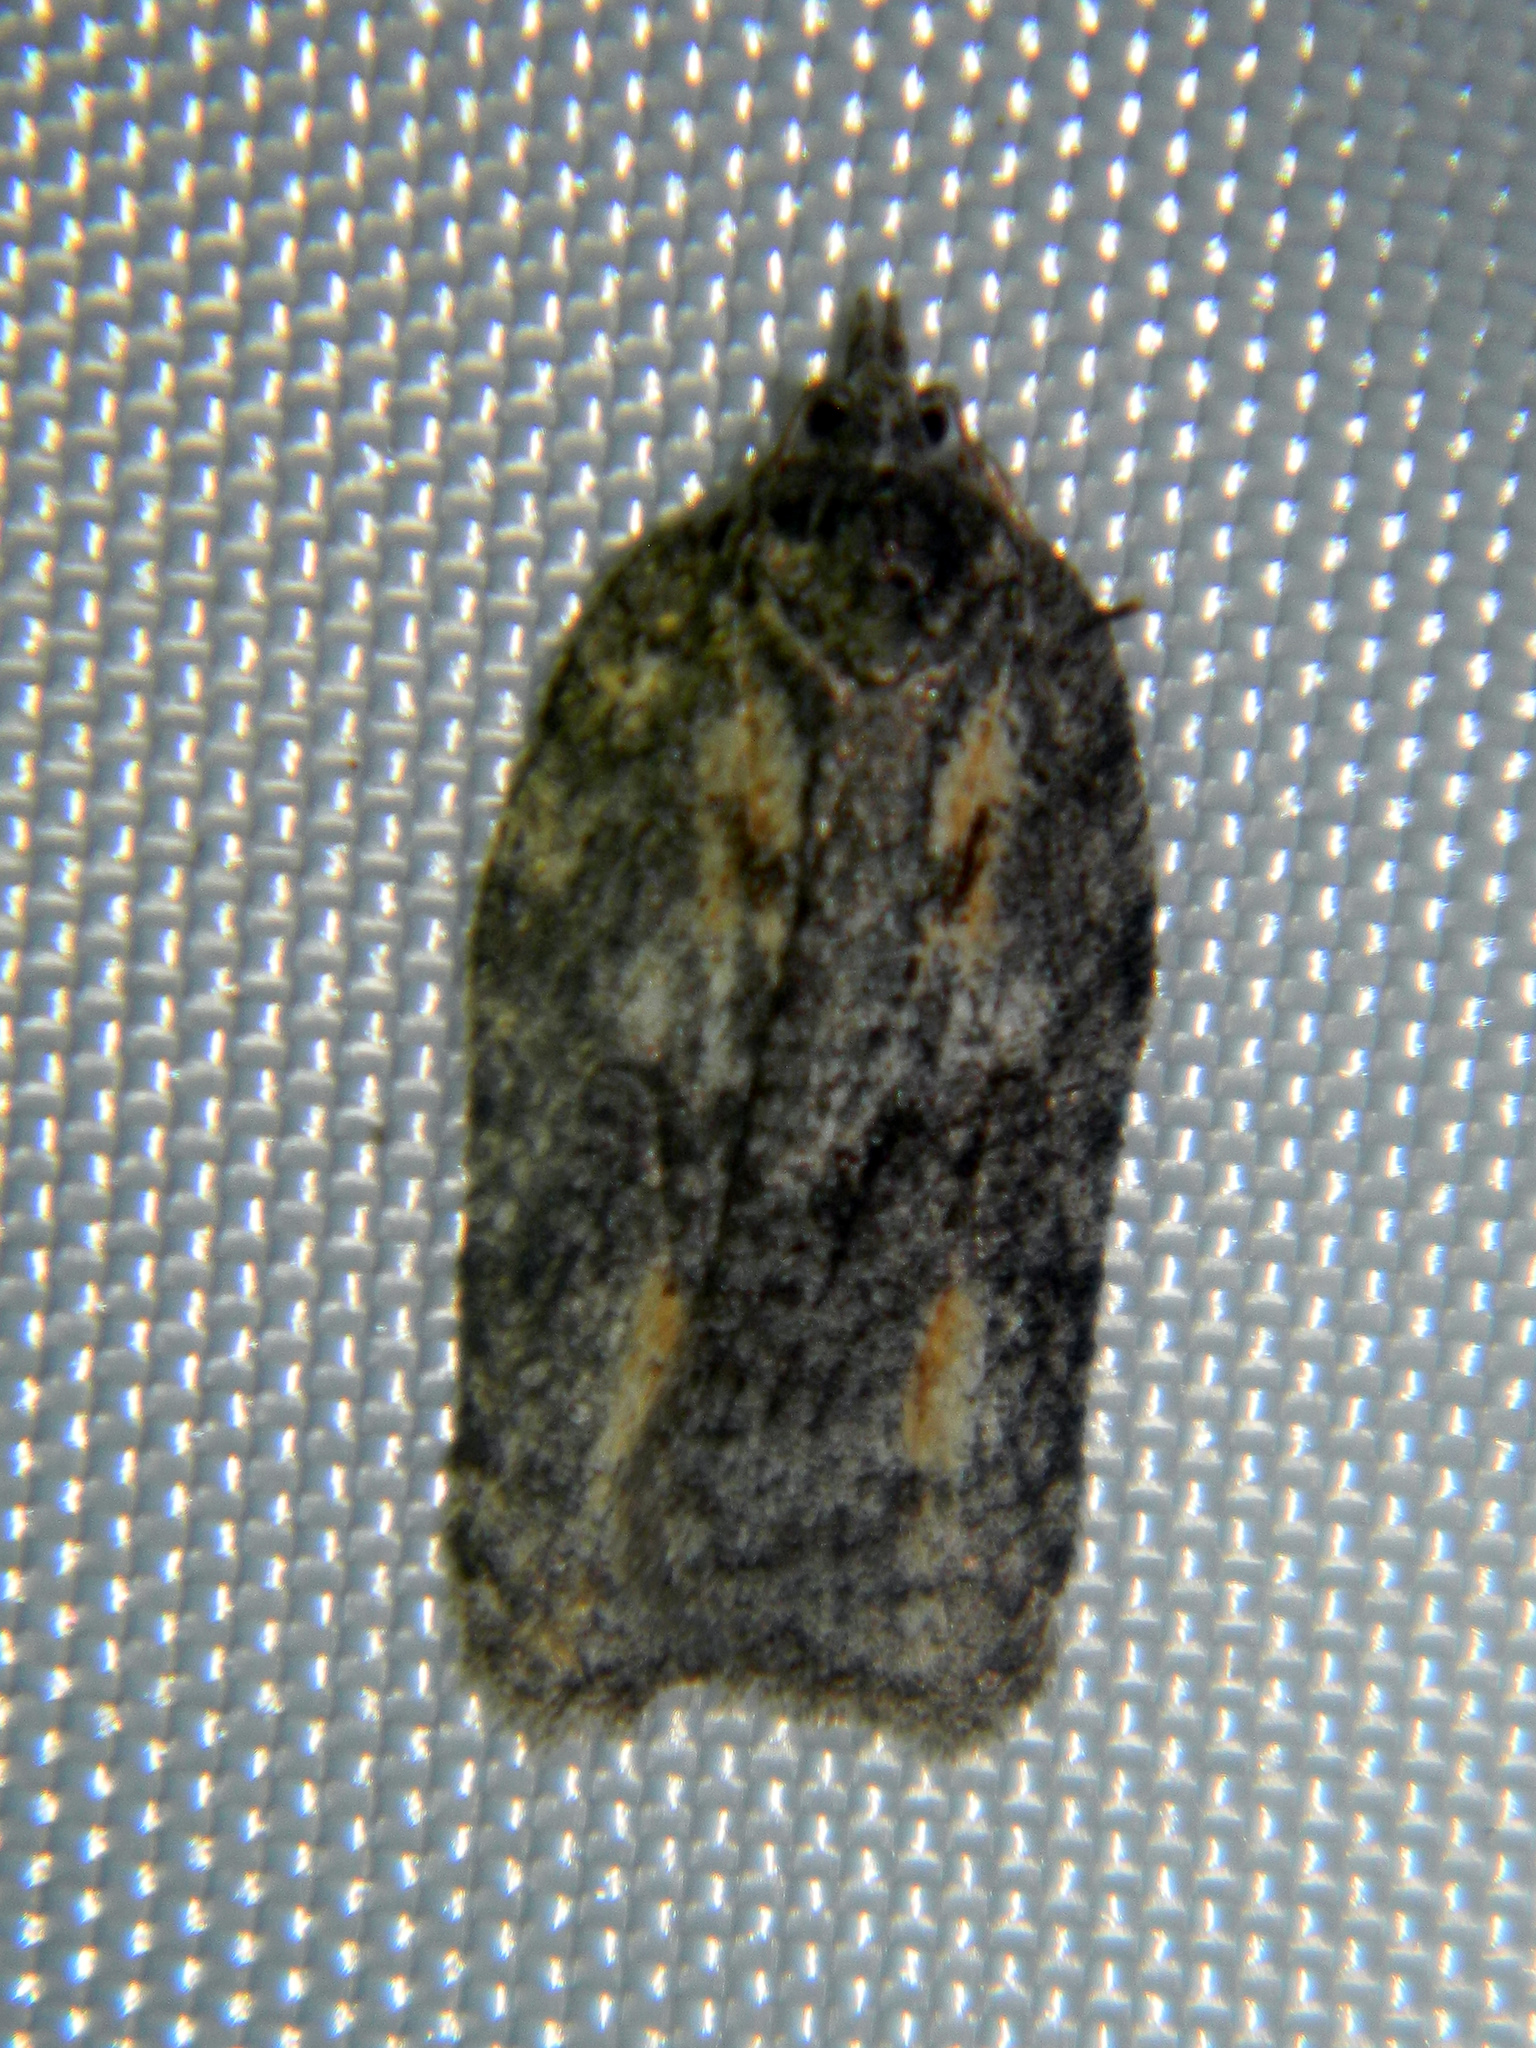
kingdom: Animalia
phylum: Arthropoda
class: Insecta
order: Lepidoptera
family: Tortricidae
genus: Acleris
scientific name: Acleris nigrolinea
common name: Black-lined acleris
